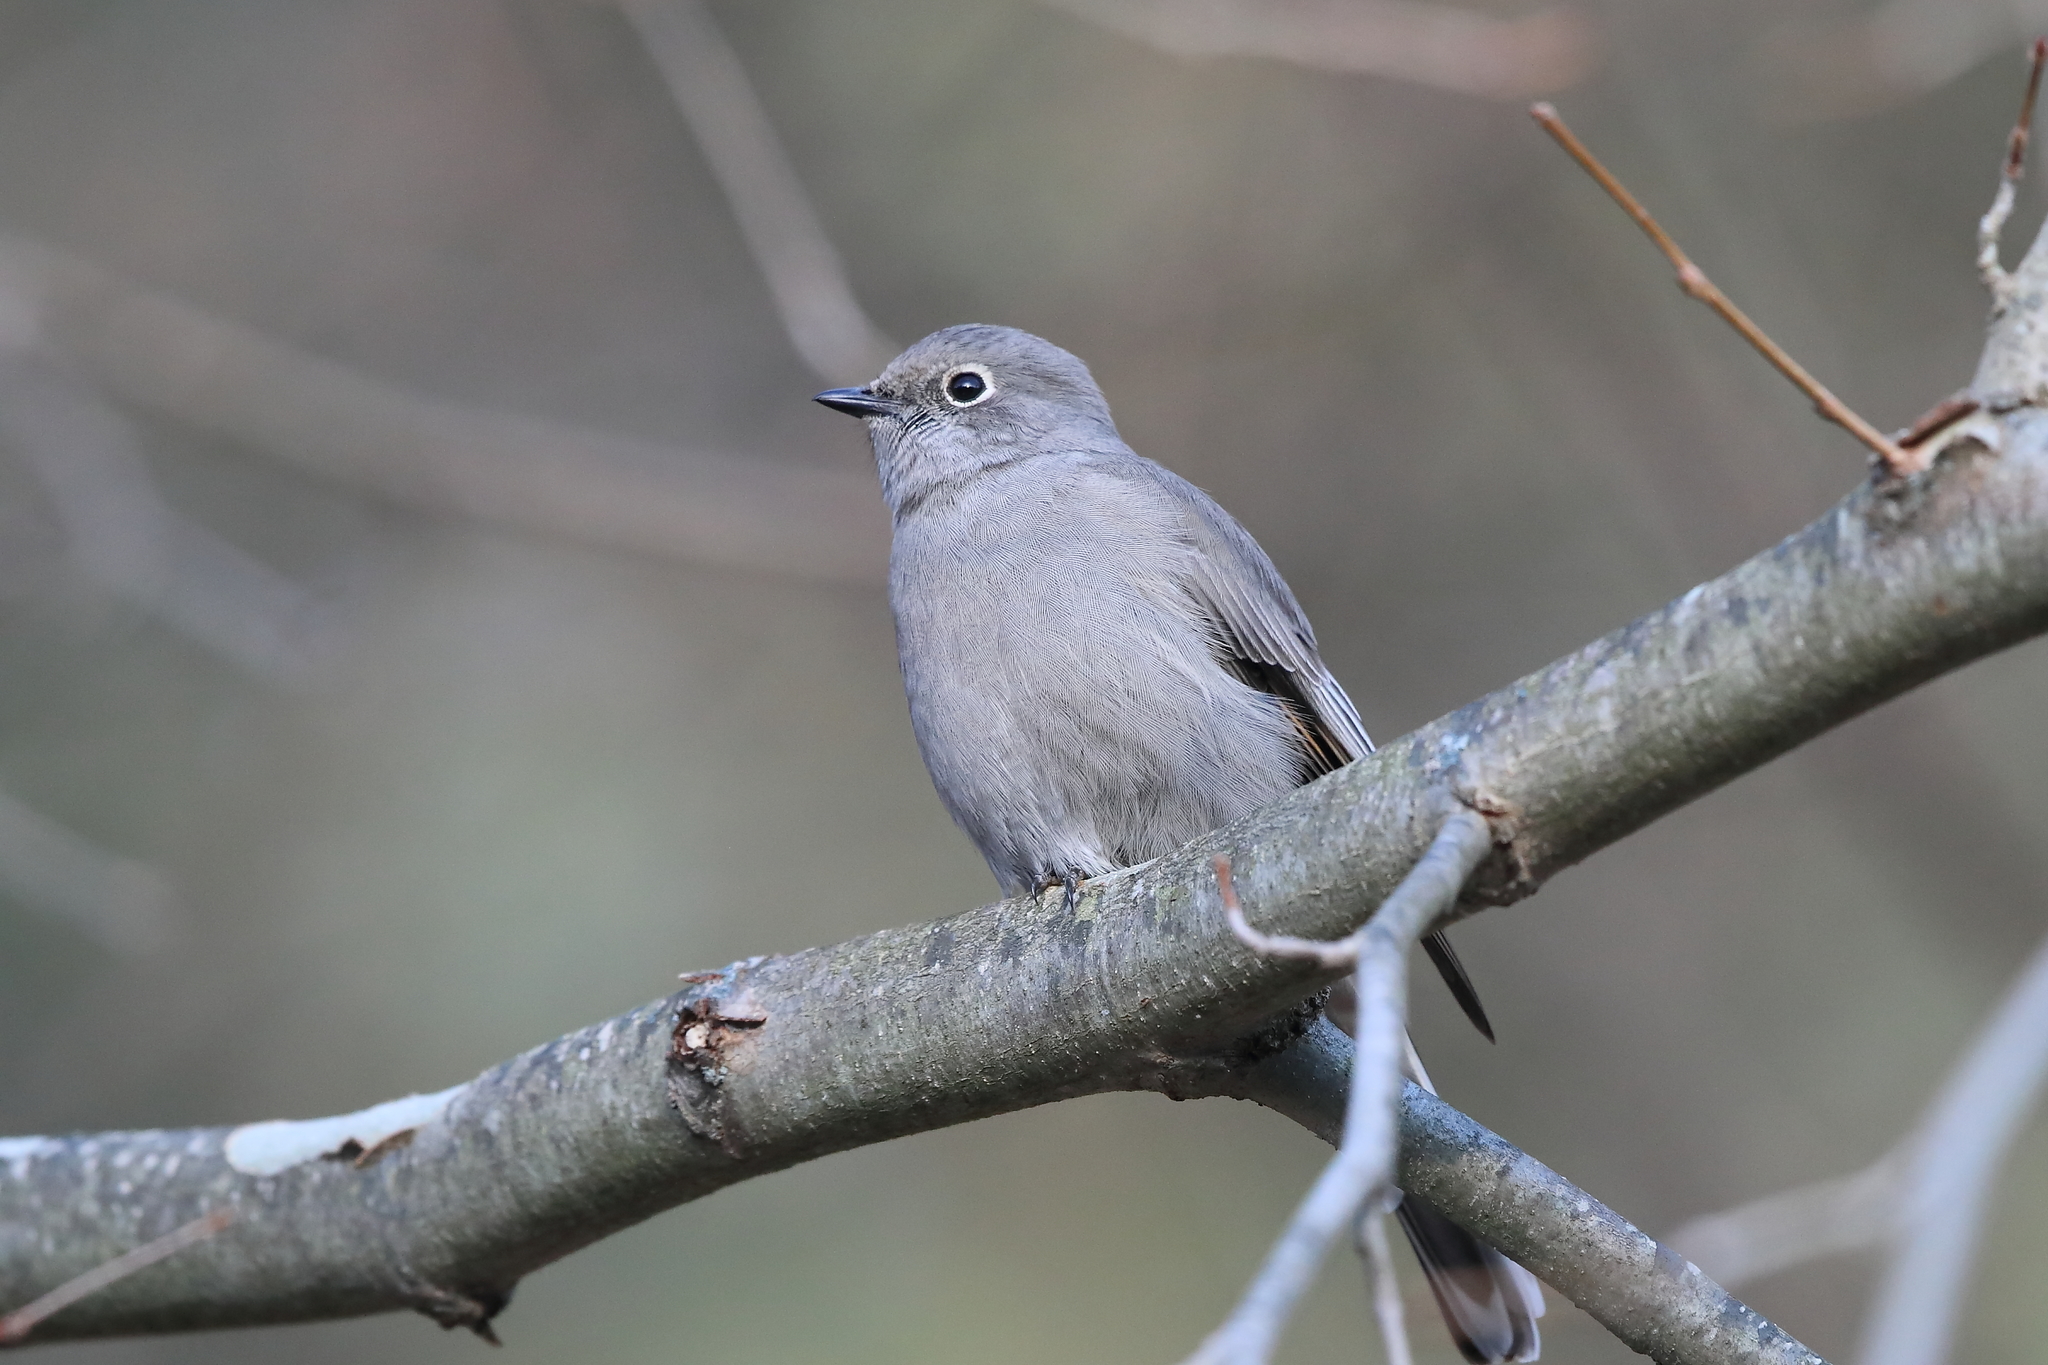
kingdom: Animalia
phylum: Chordata
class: Aves
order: Passeriformes
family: Turdidae
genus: Myadestes
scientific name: Myadestes townsendi
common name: Townsend's solitaire
